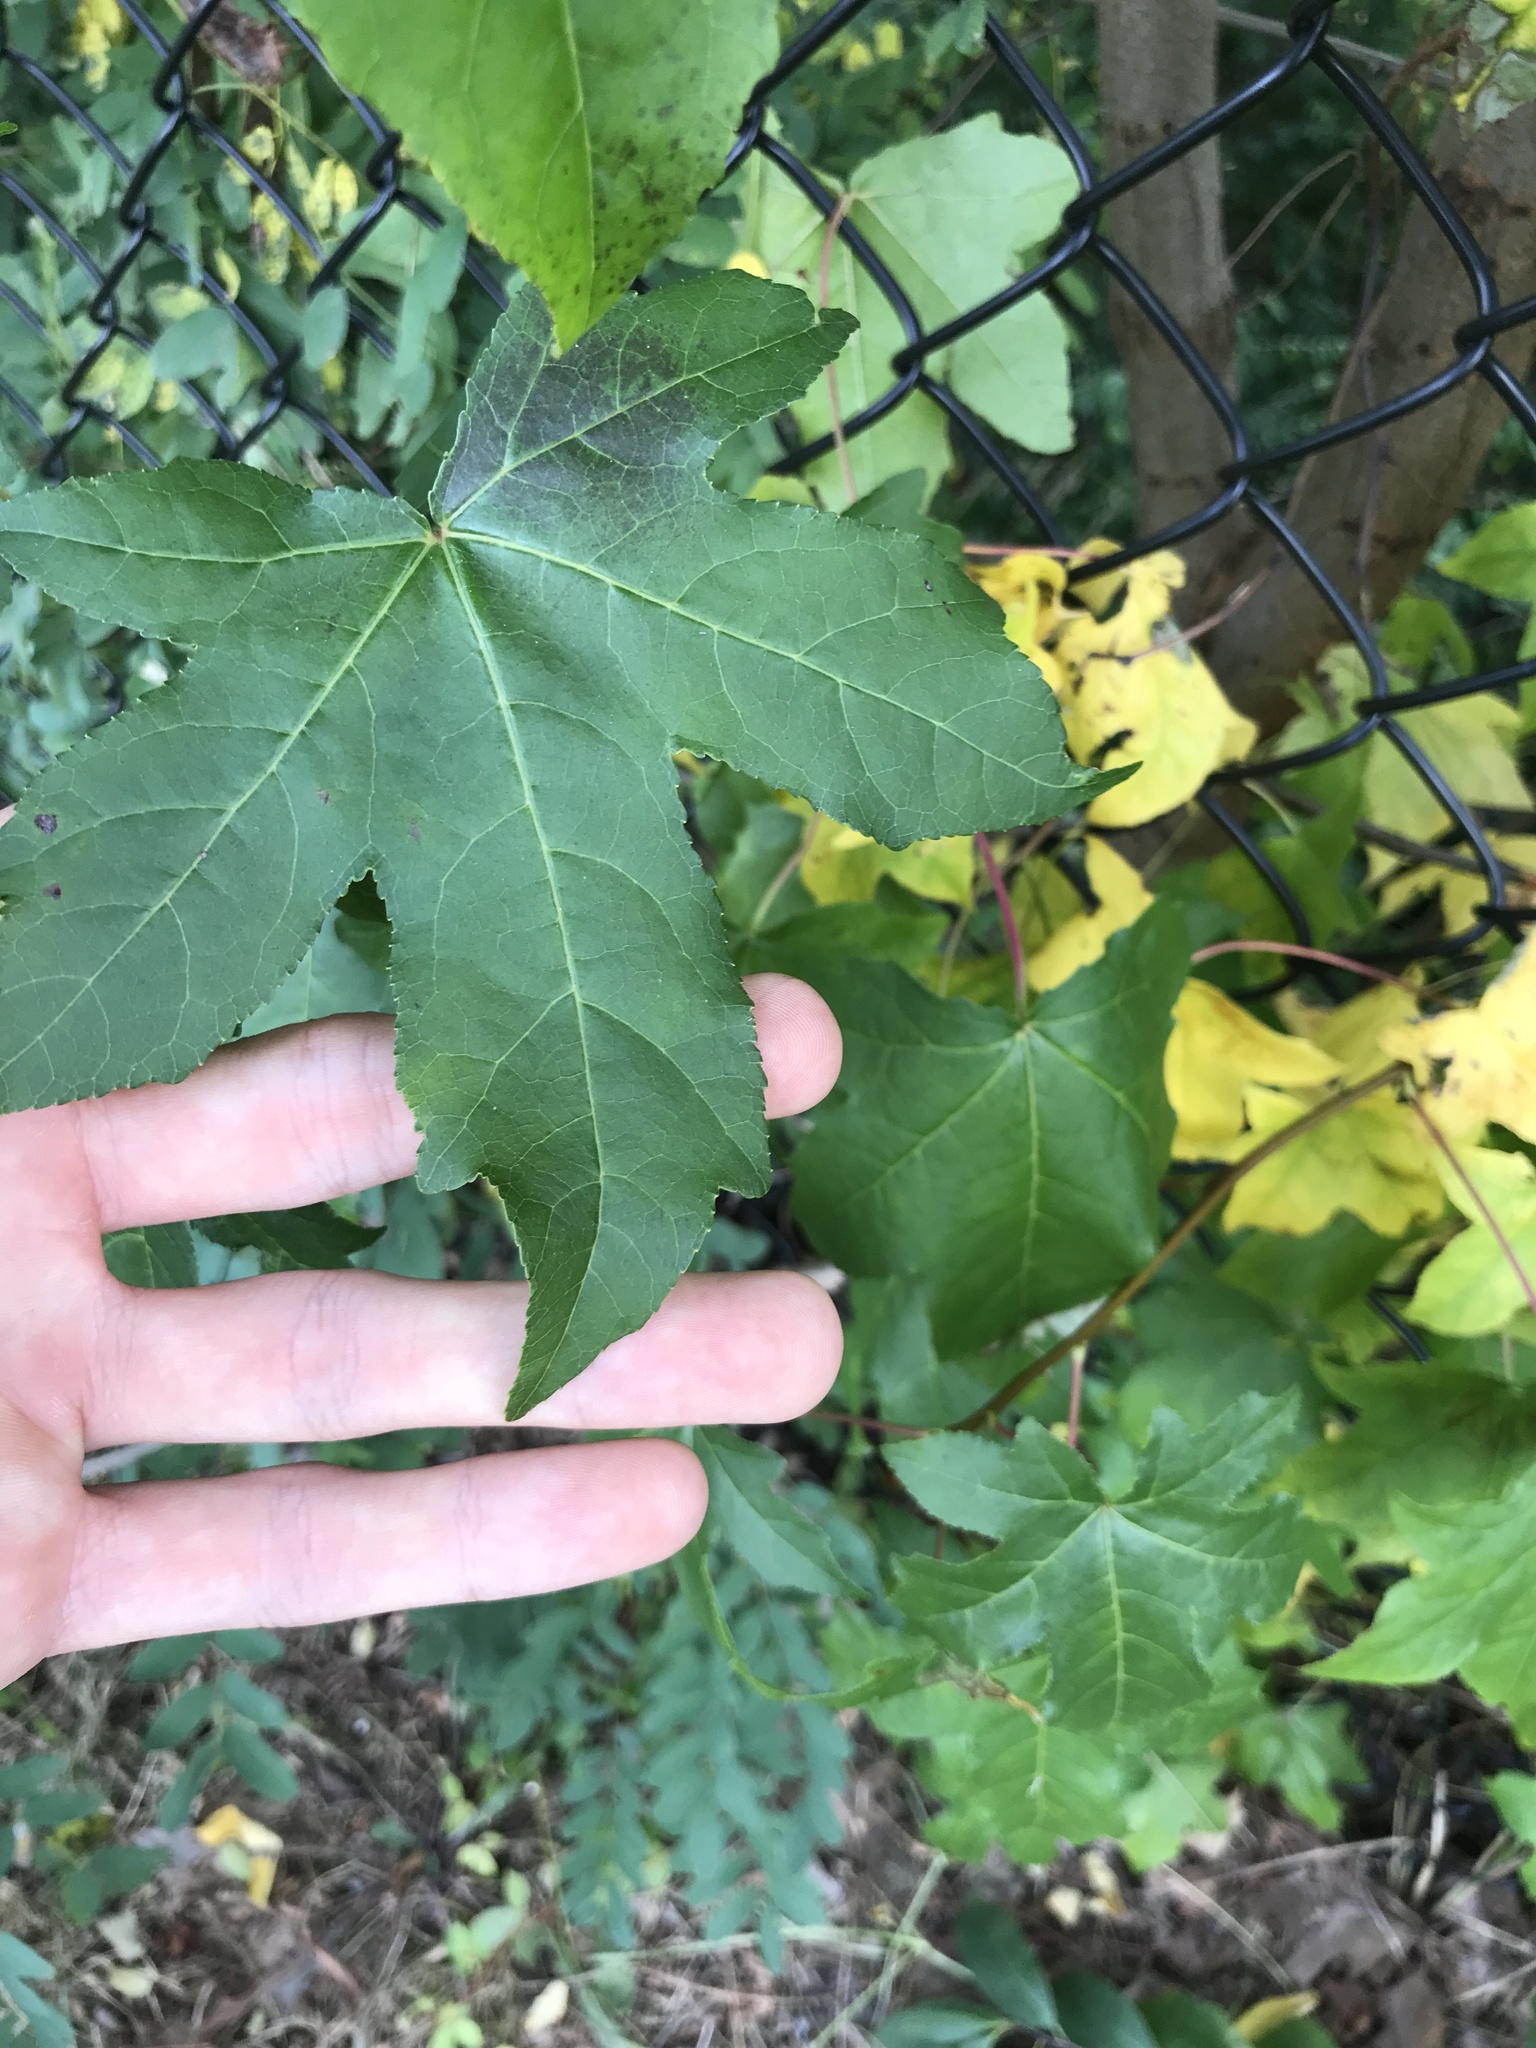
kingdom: Plantae
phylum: Tracheophyta
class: Magnoliopsida
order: Saxifragales
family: Altingiaceae
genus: Liquidambar
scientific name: Liquidambar styraciflua
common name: Sweet gum
